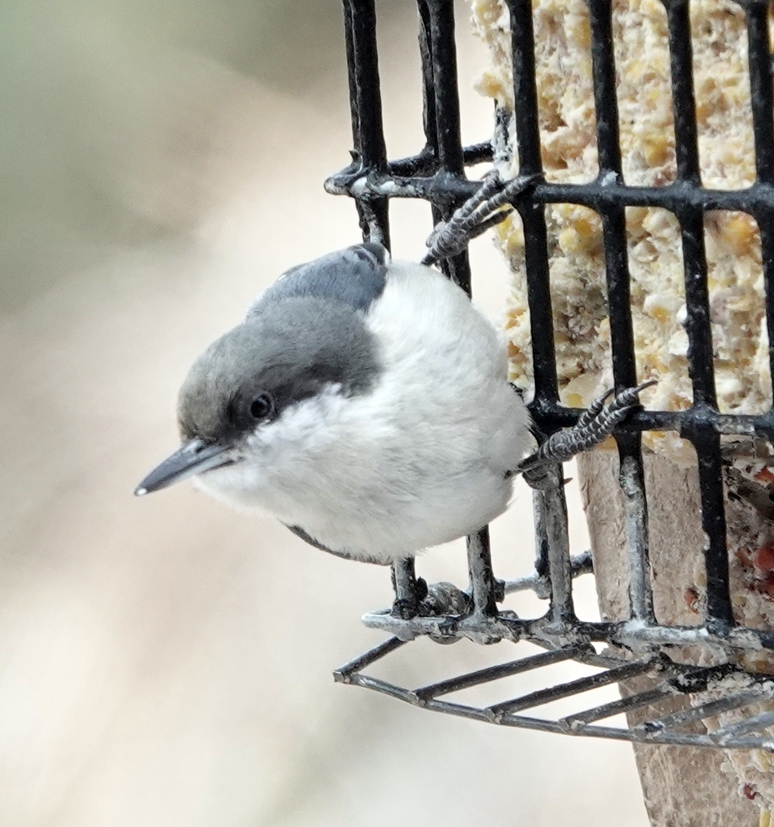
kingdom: Animalia
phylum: Chordata
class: Aves
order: Passeriformes
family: Sittidae
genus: Sitta
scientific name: Sitta pygmaea
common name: Pygmy nuthatch
